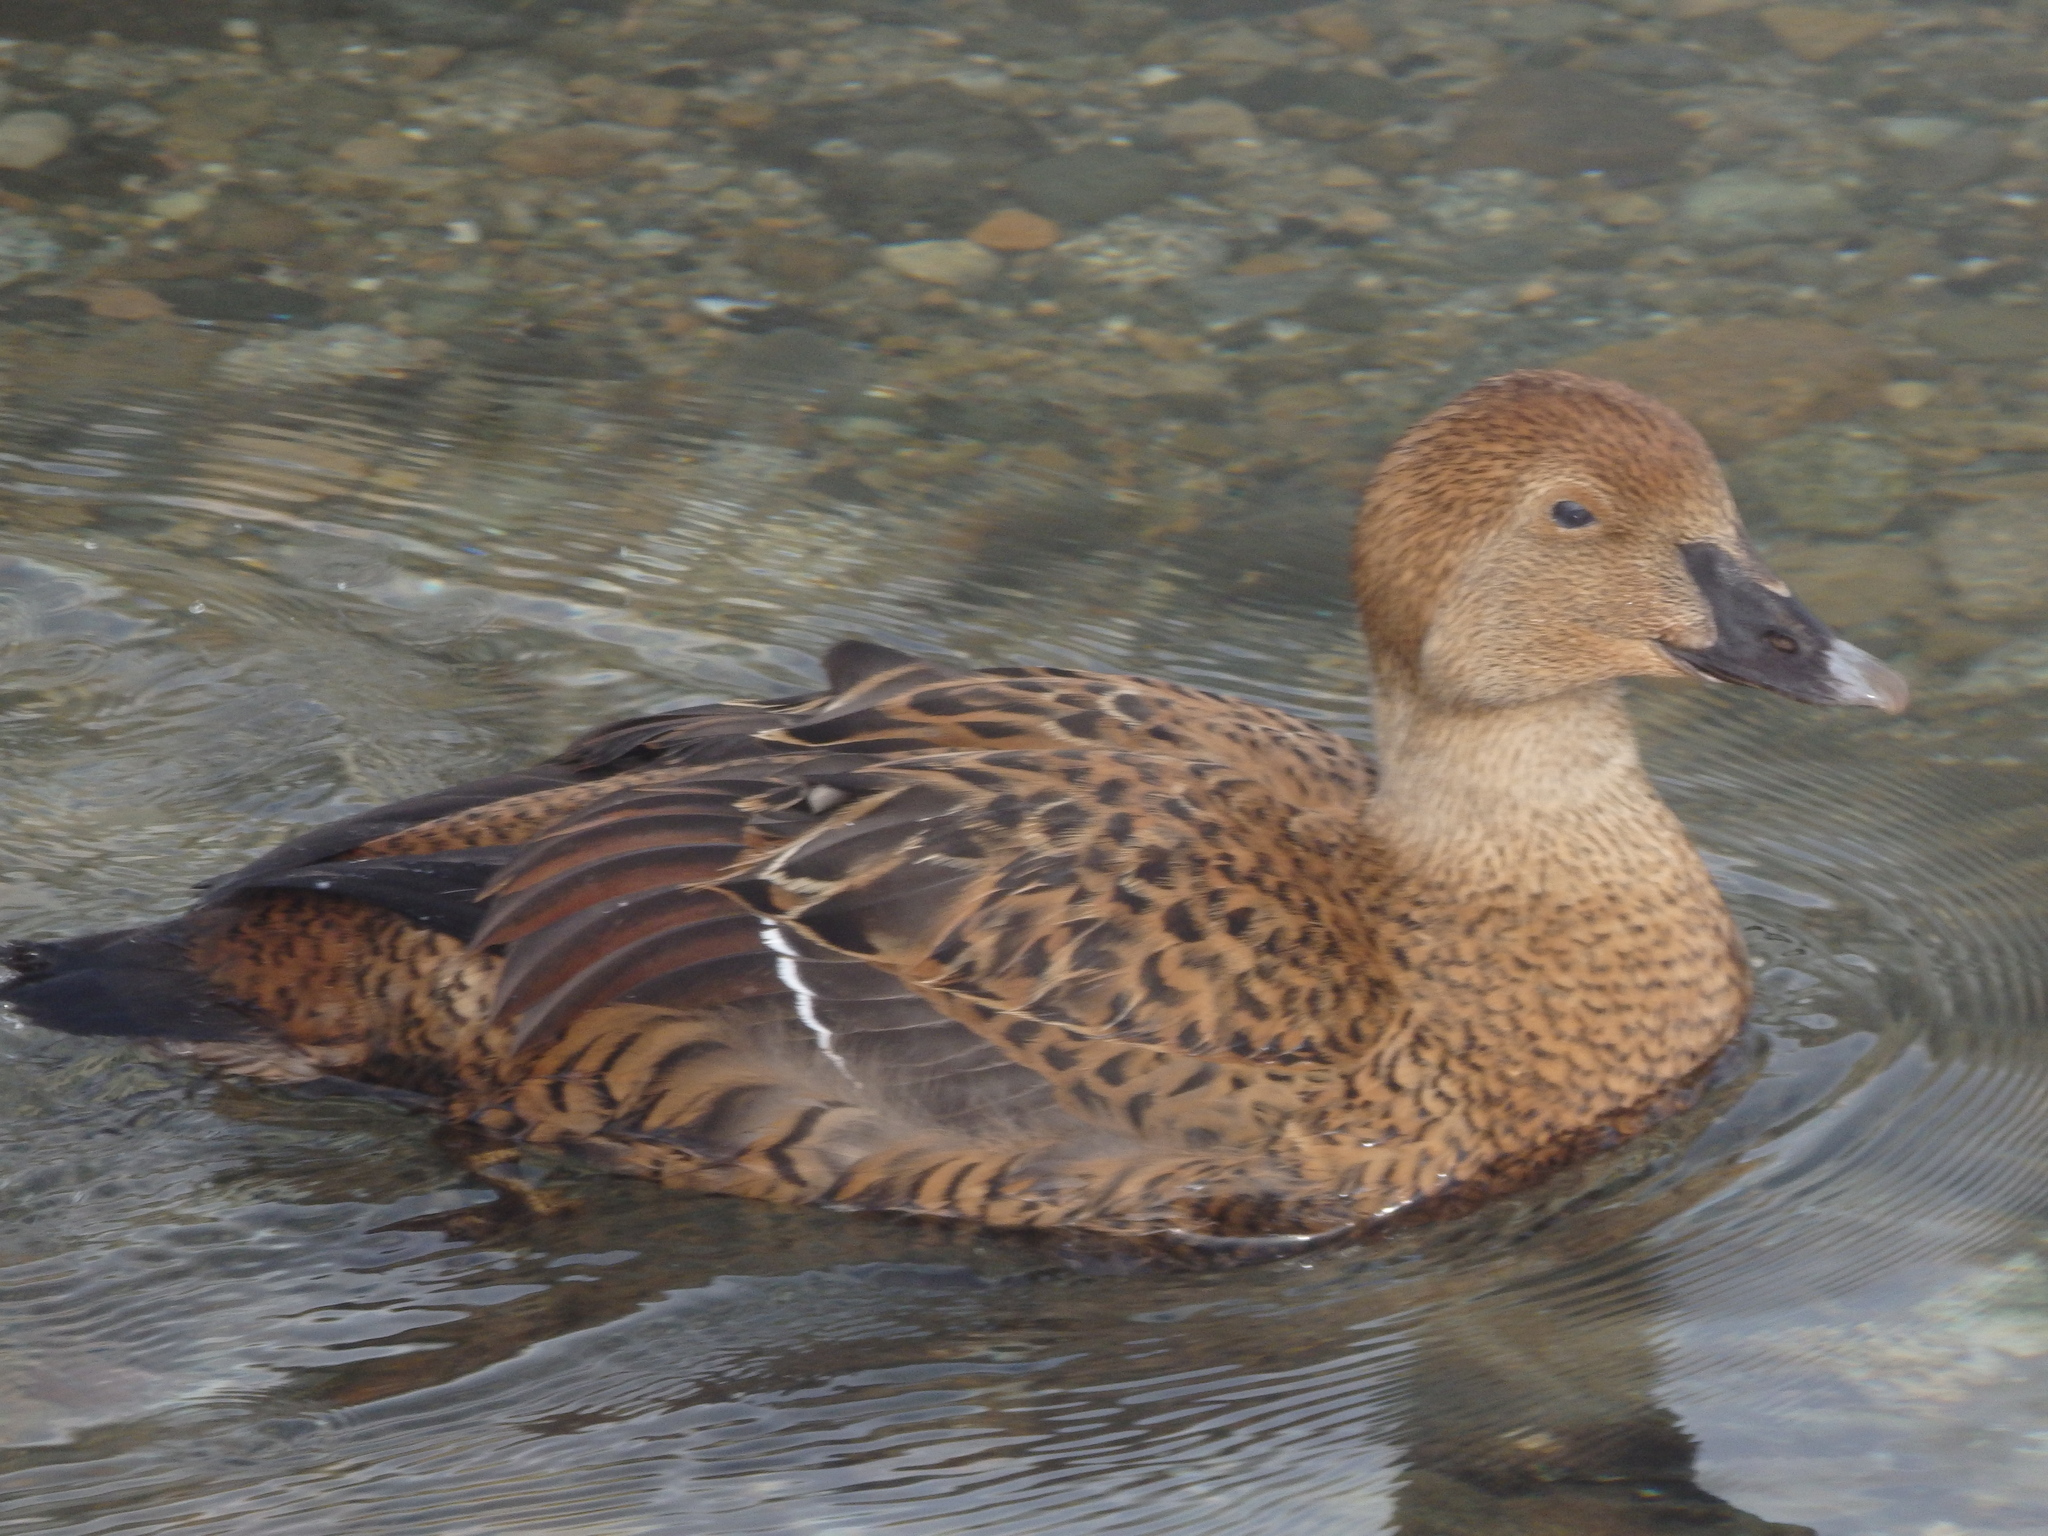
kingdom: Animalia
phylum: Chordata
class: Aves
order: Anseriformes
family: Anatidae
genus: Somateria
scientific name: Somateria spectabilis
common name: King eider
